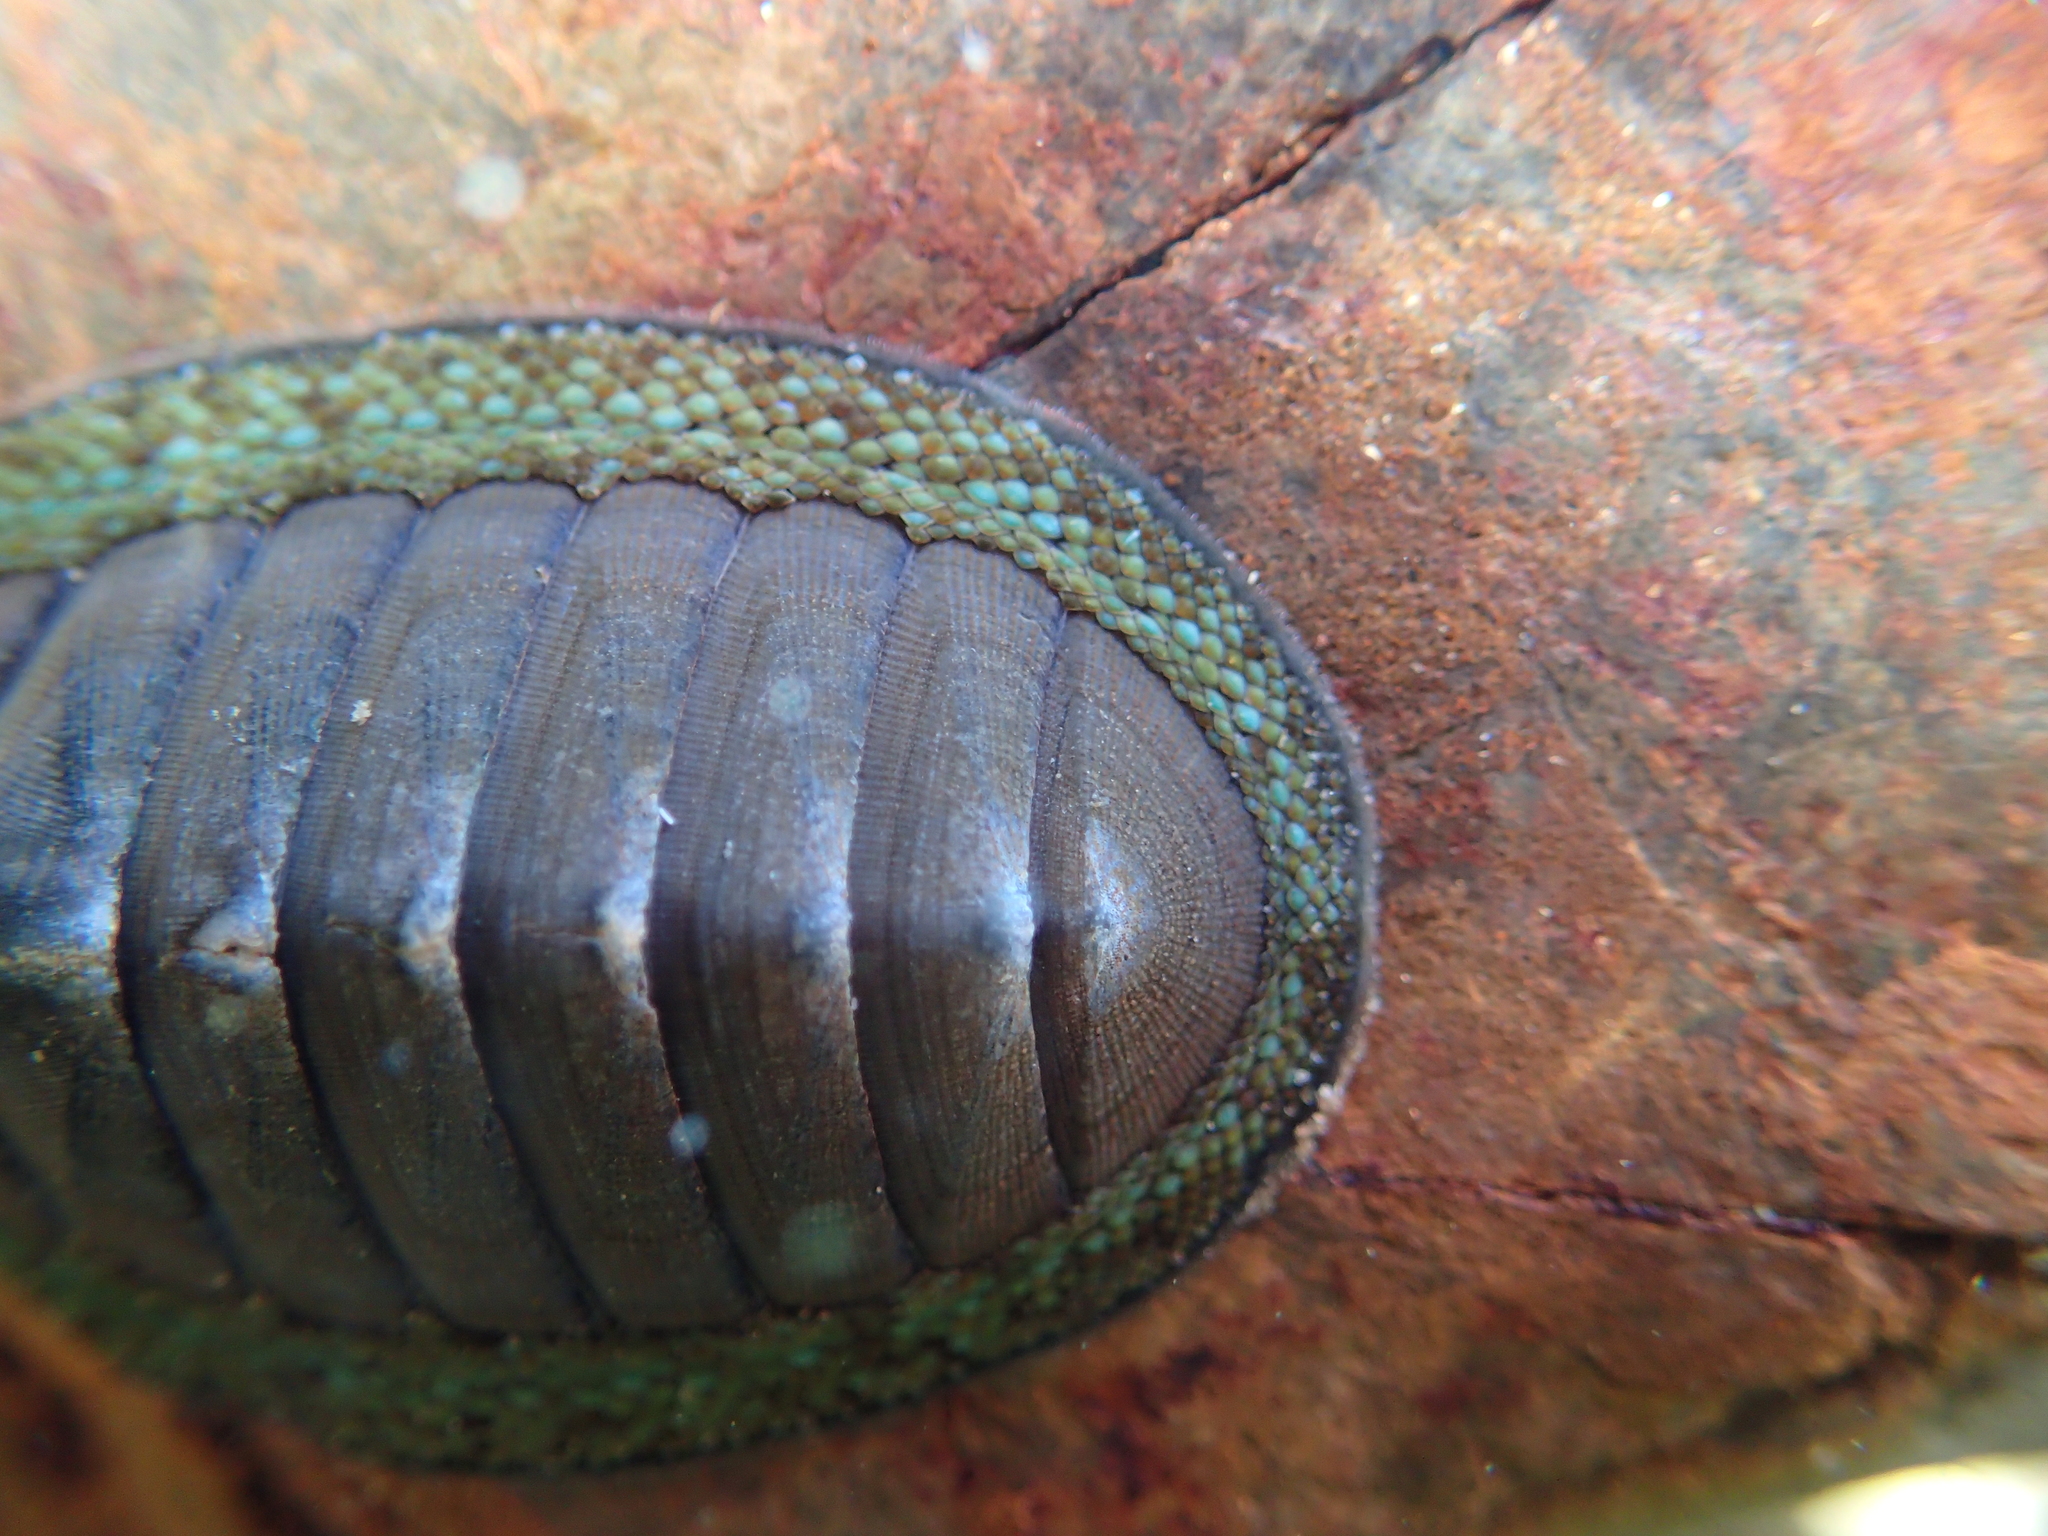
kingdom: Animalia
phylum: Mollusca
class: Polyplacophora
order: Chitonida
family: Chitonidae
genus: Chiton
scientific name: Chiton glaucus
